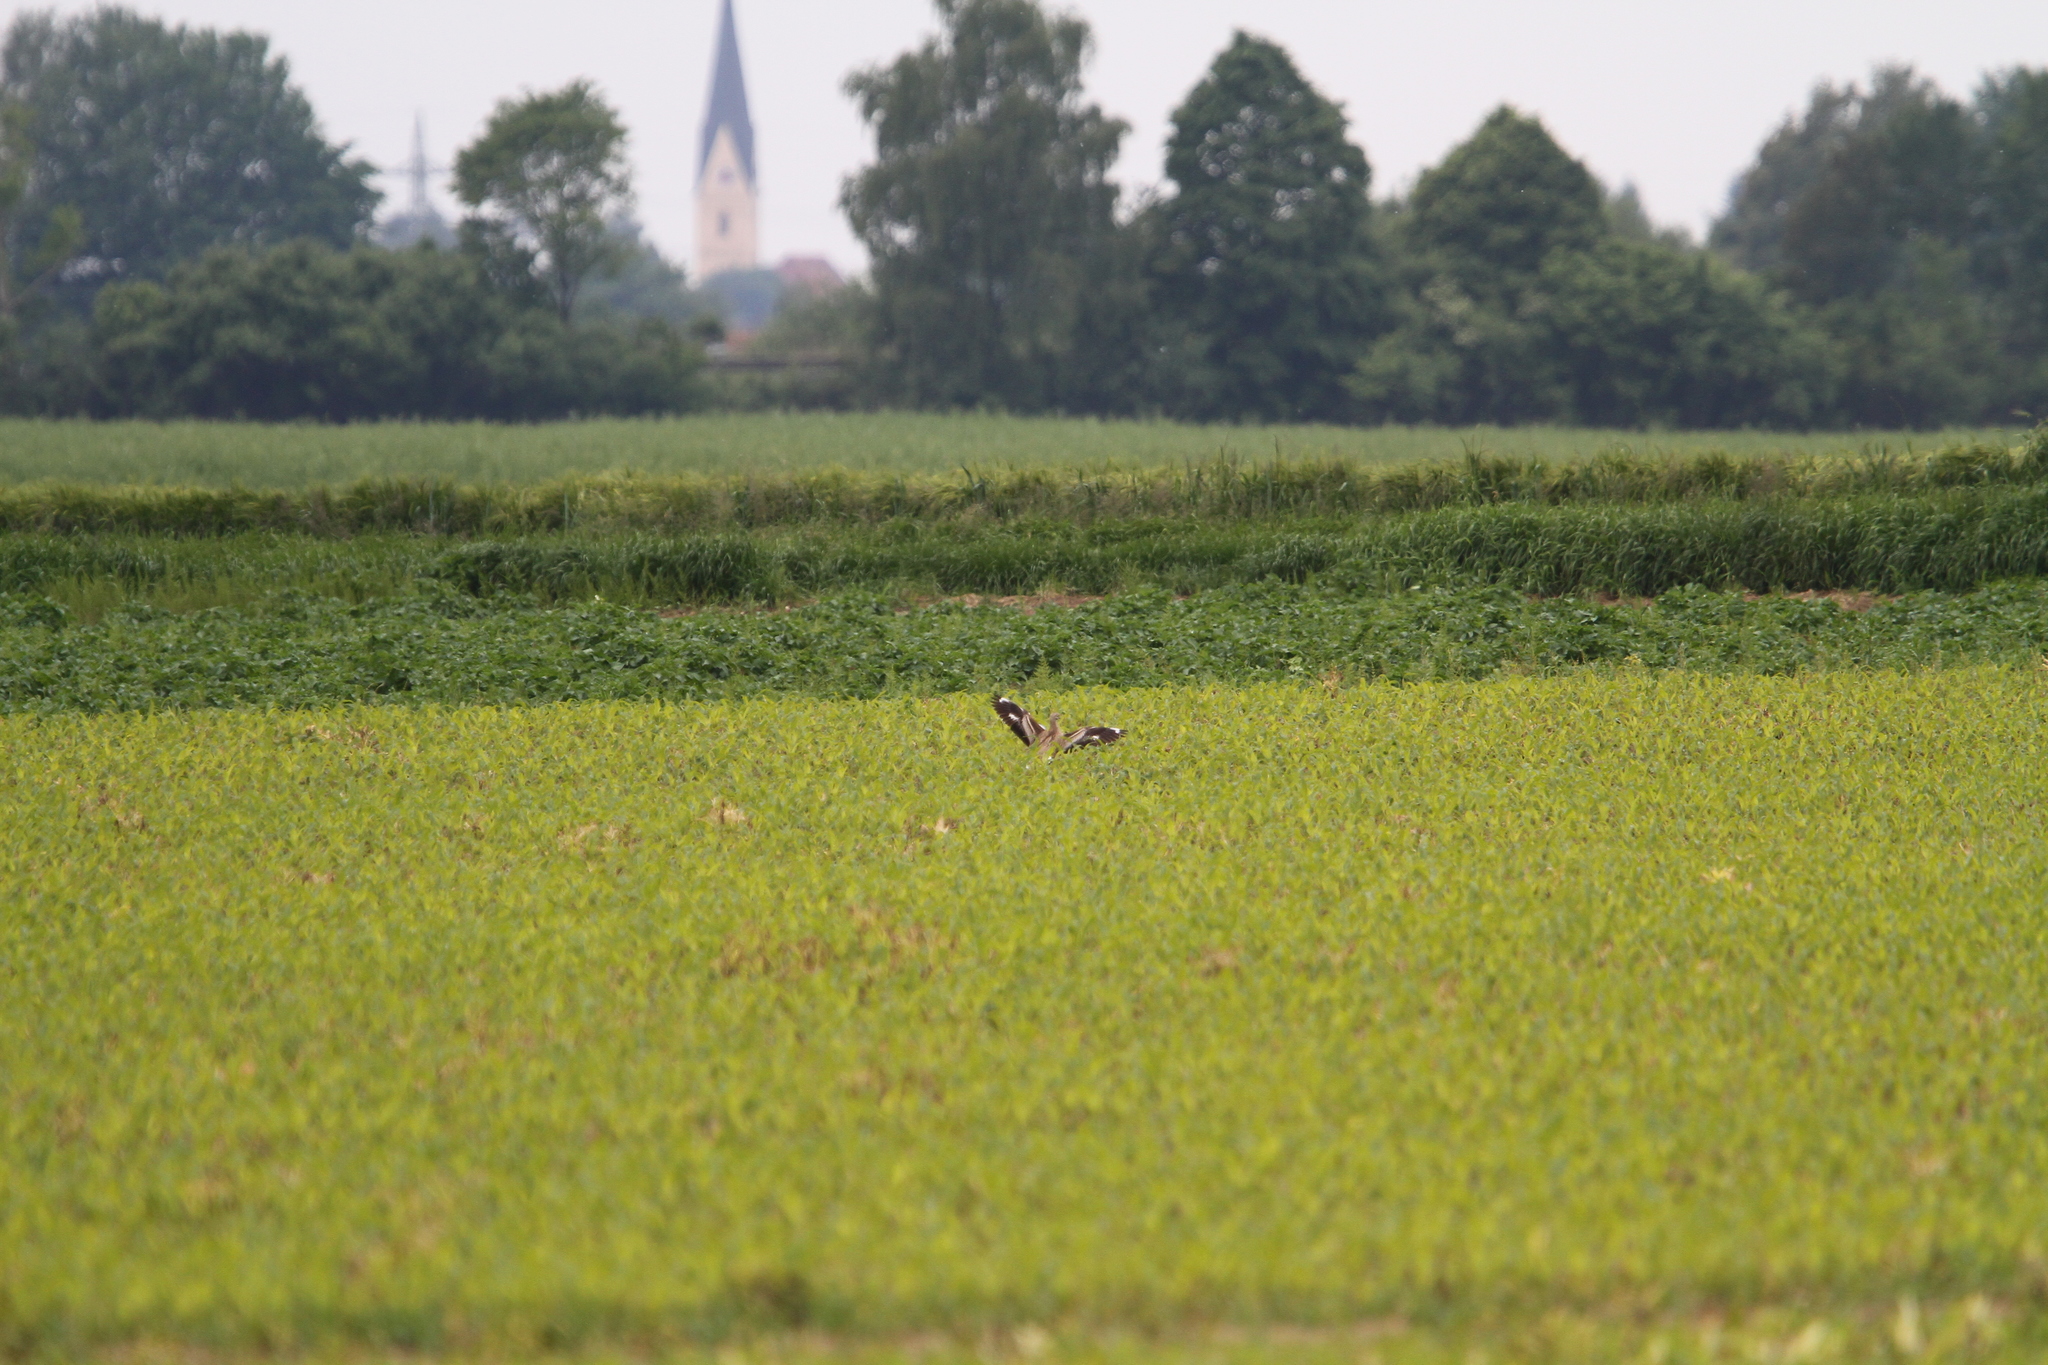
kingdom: Animalia
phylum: Chordata
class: Aves
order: Charadriiformes
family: Burhinidae
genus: Burhinus
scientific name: Burhinus oedicnemus
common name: Eurasian stone-curlew
